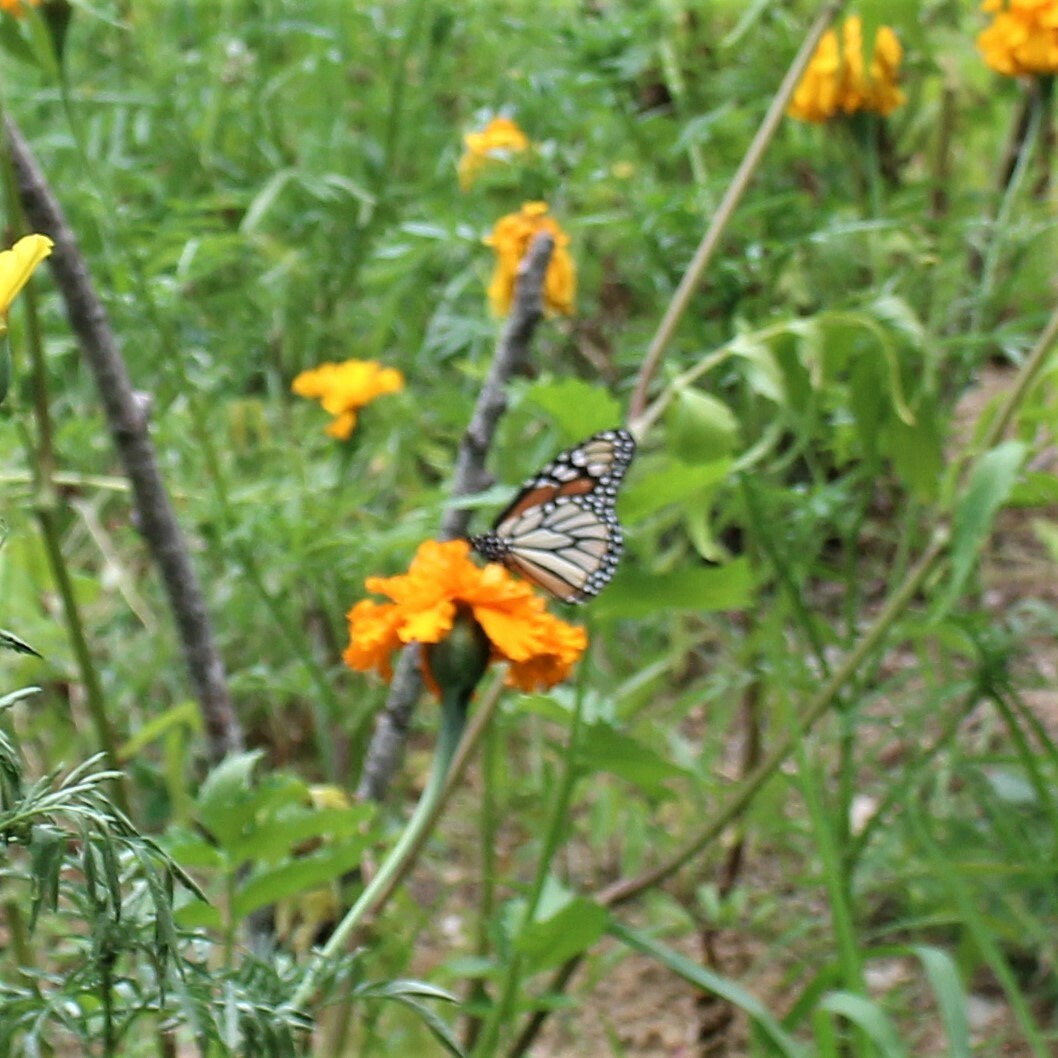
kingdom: Animalia
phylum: Arthropoda
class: Insecta
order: Lepidoptera
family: Nymphalidae
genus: Danaus
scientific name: Danaus plexippus
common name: Monarch
